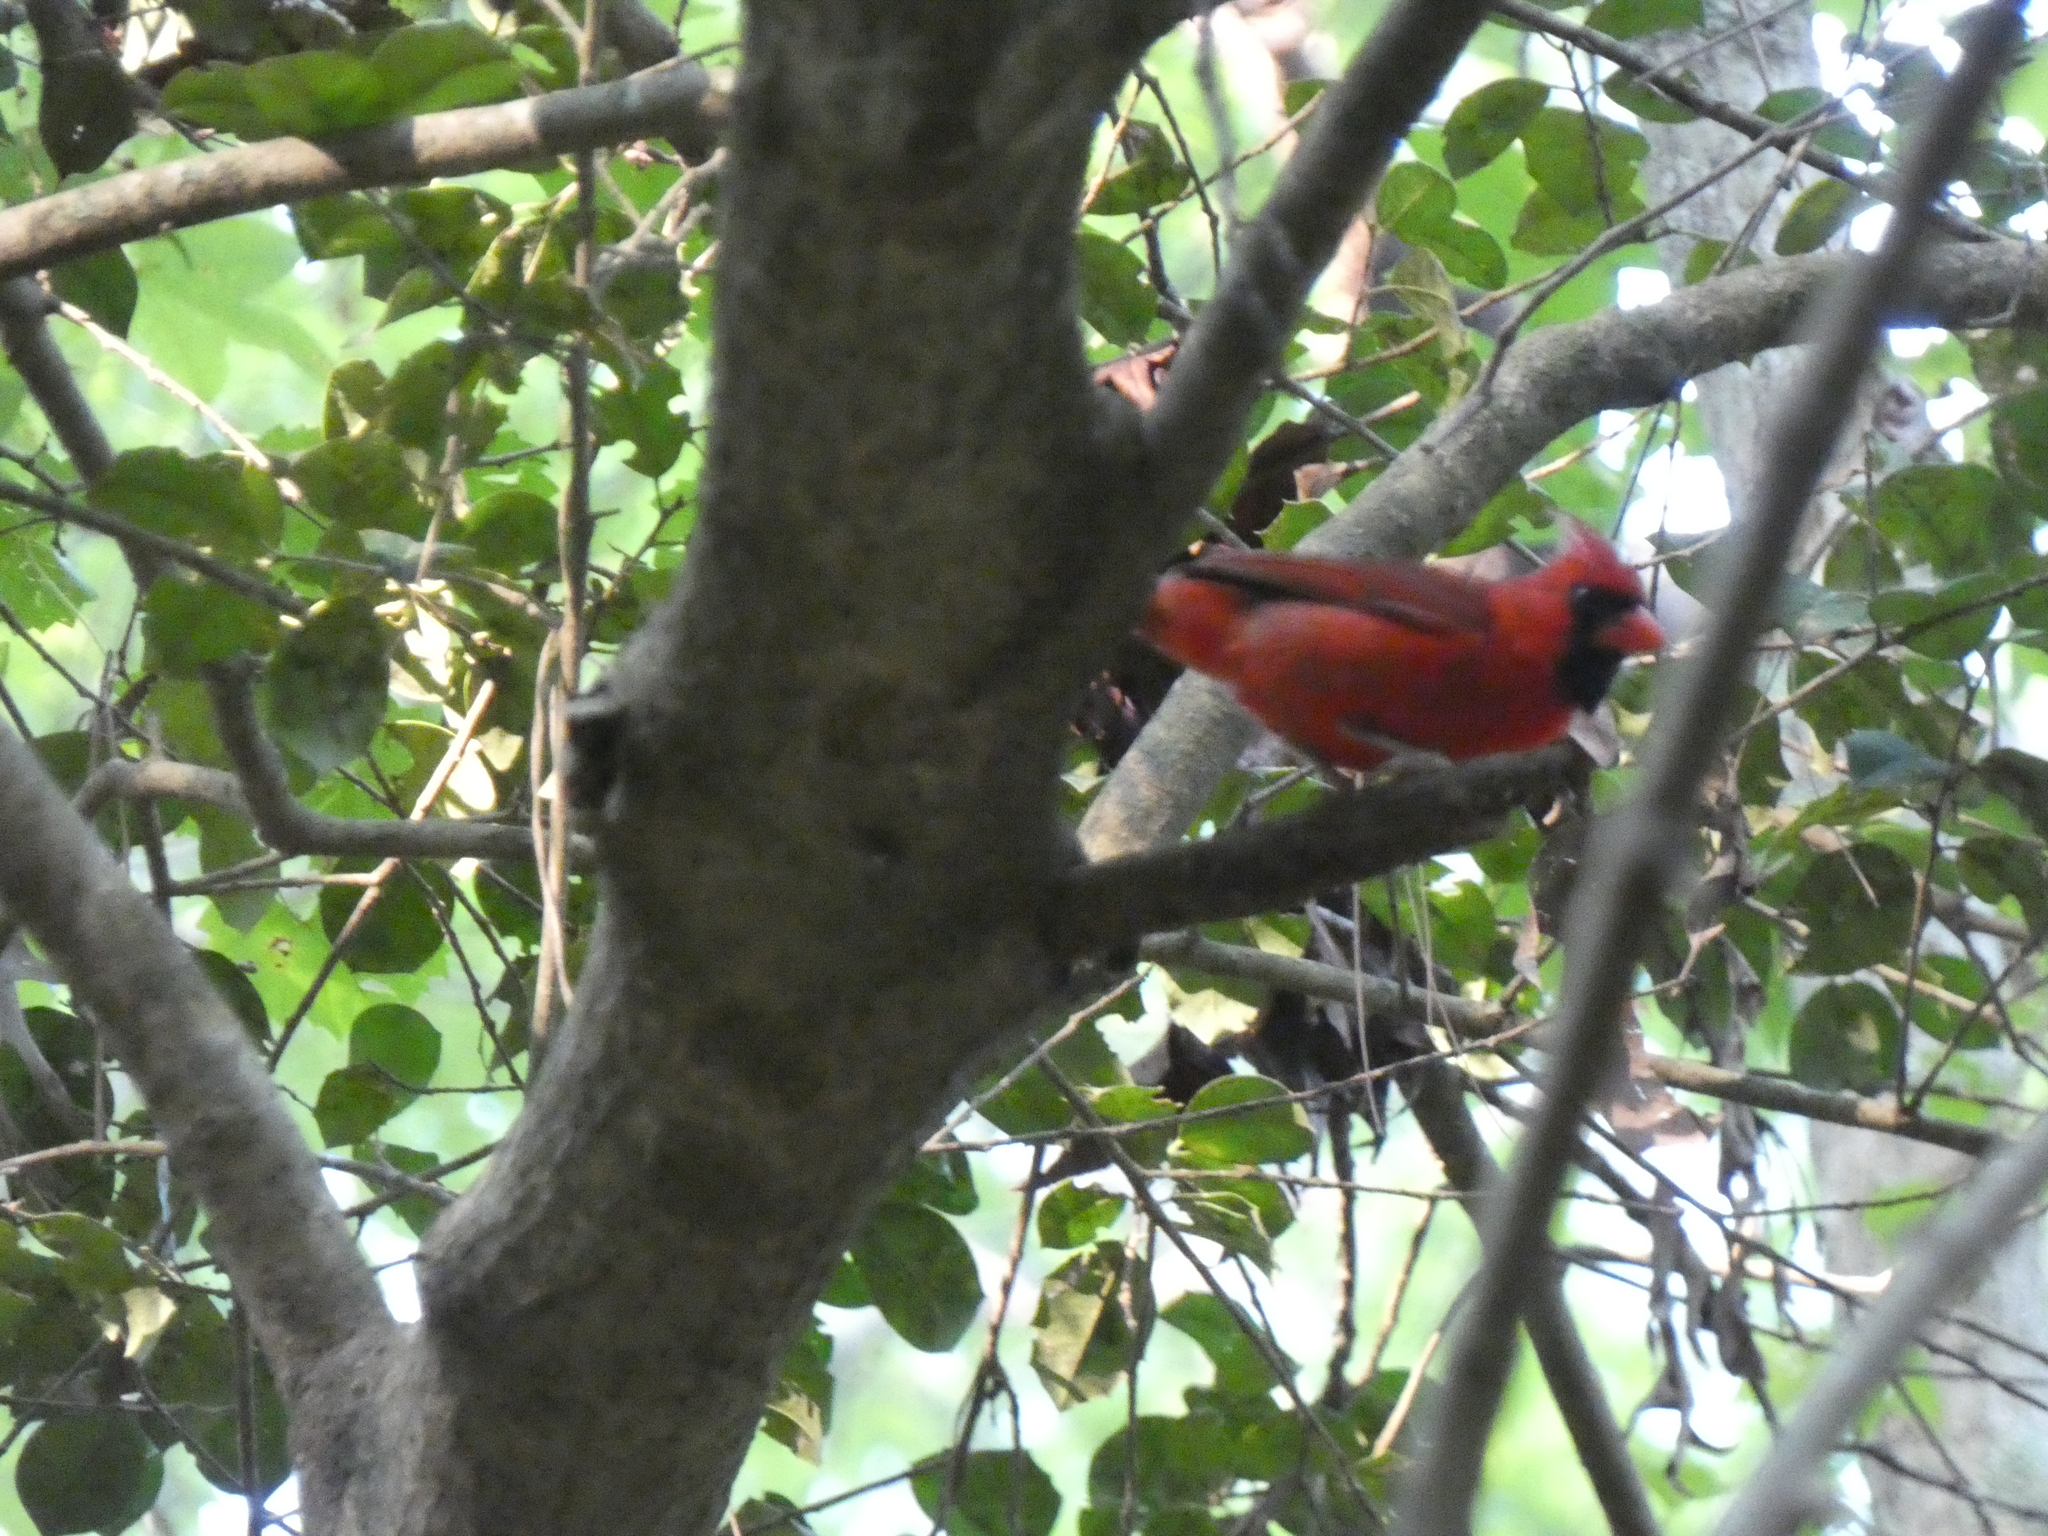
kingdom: Animalia
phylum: Chordata
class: Aves
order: Passeriformes
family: Cardinalidae
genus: Cardinalis
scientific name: Cardinalis cardinalis
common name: Northern cardinal
